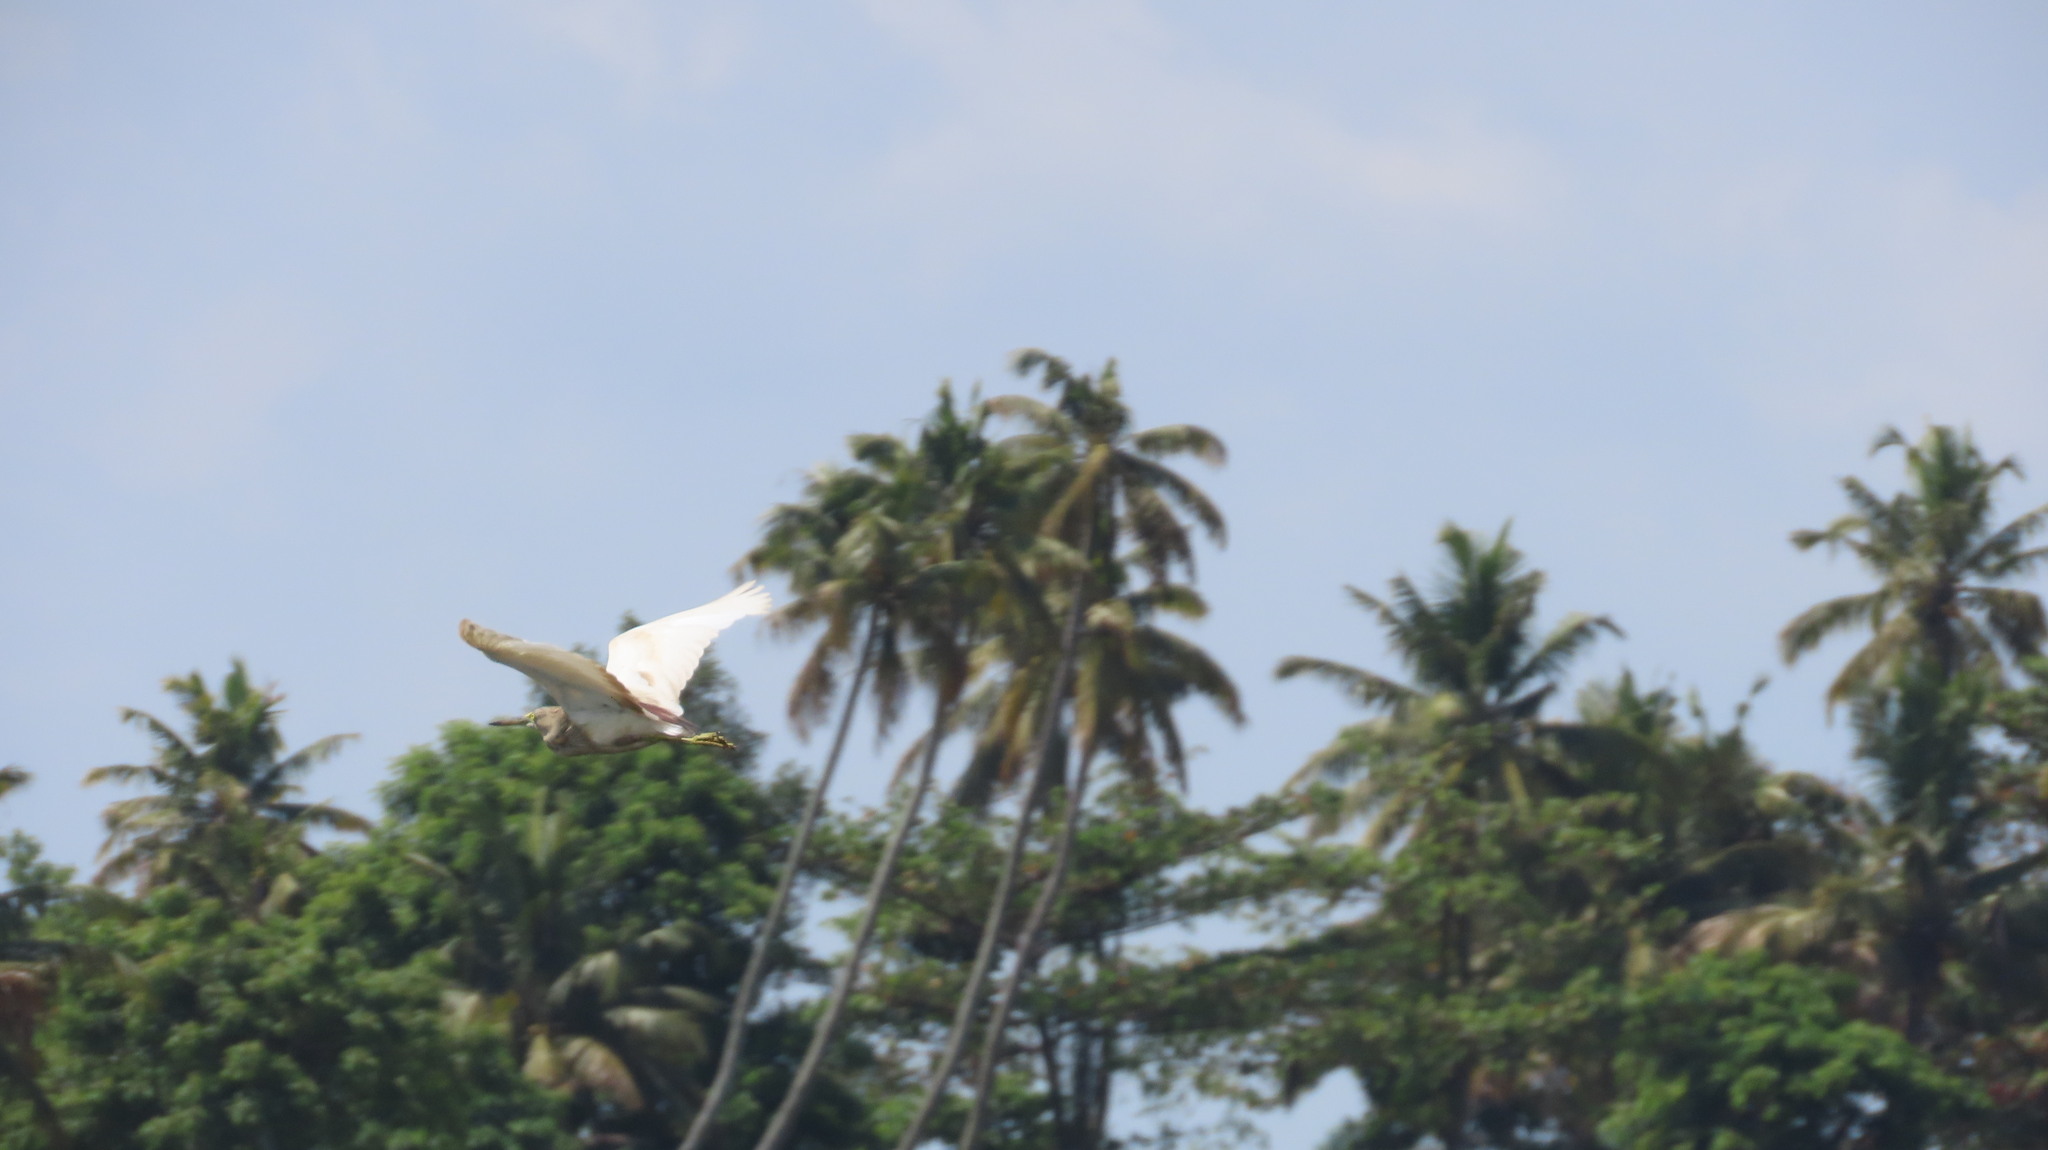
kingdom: Animalia
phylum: Chordata
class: Aves
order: Pelecaniformes
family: Ardeidae
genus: Ardeola
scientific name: Ardeola grayii
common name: Indian pond heron
